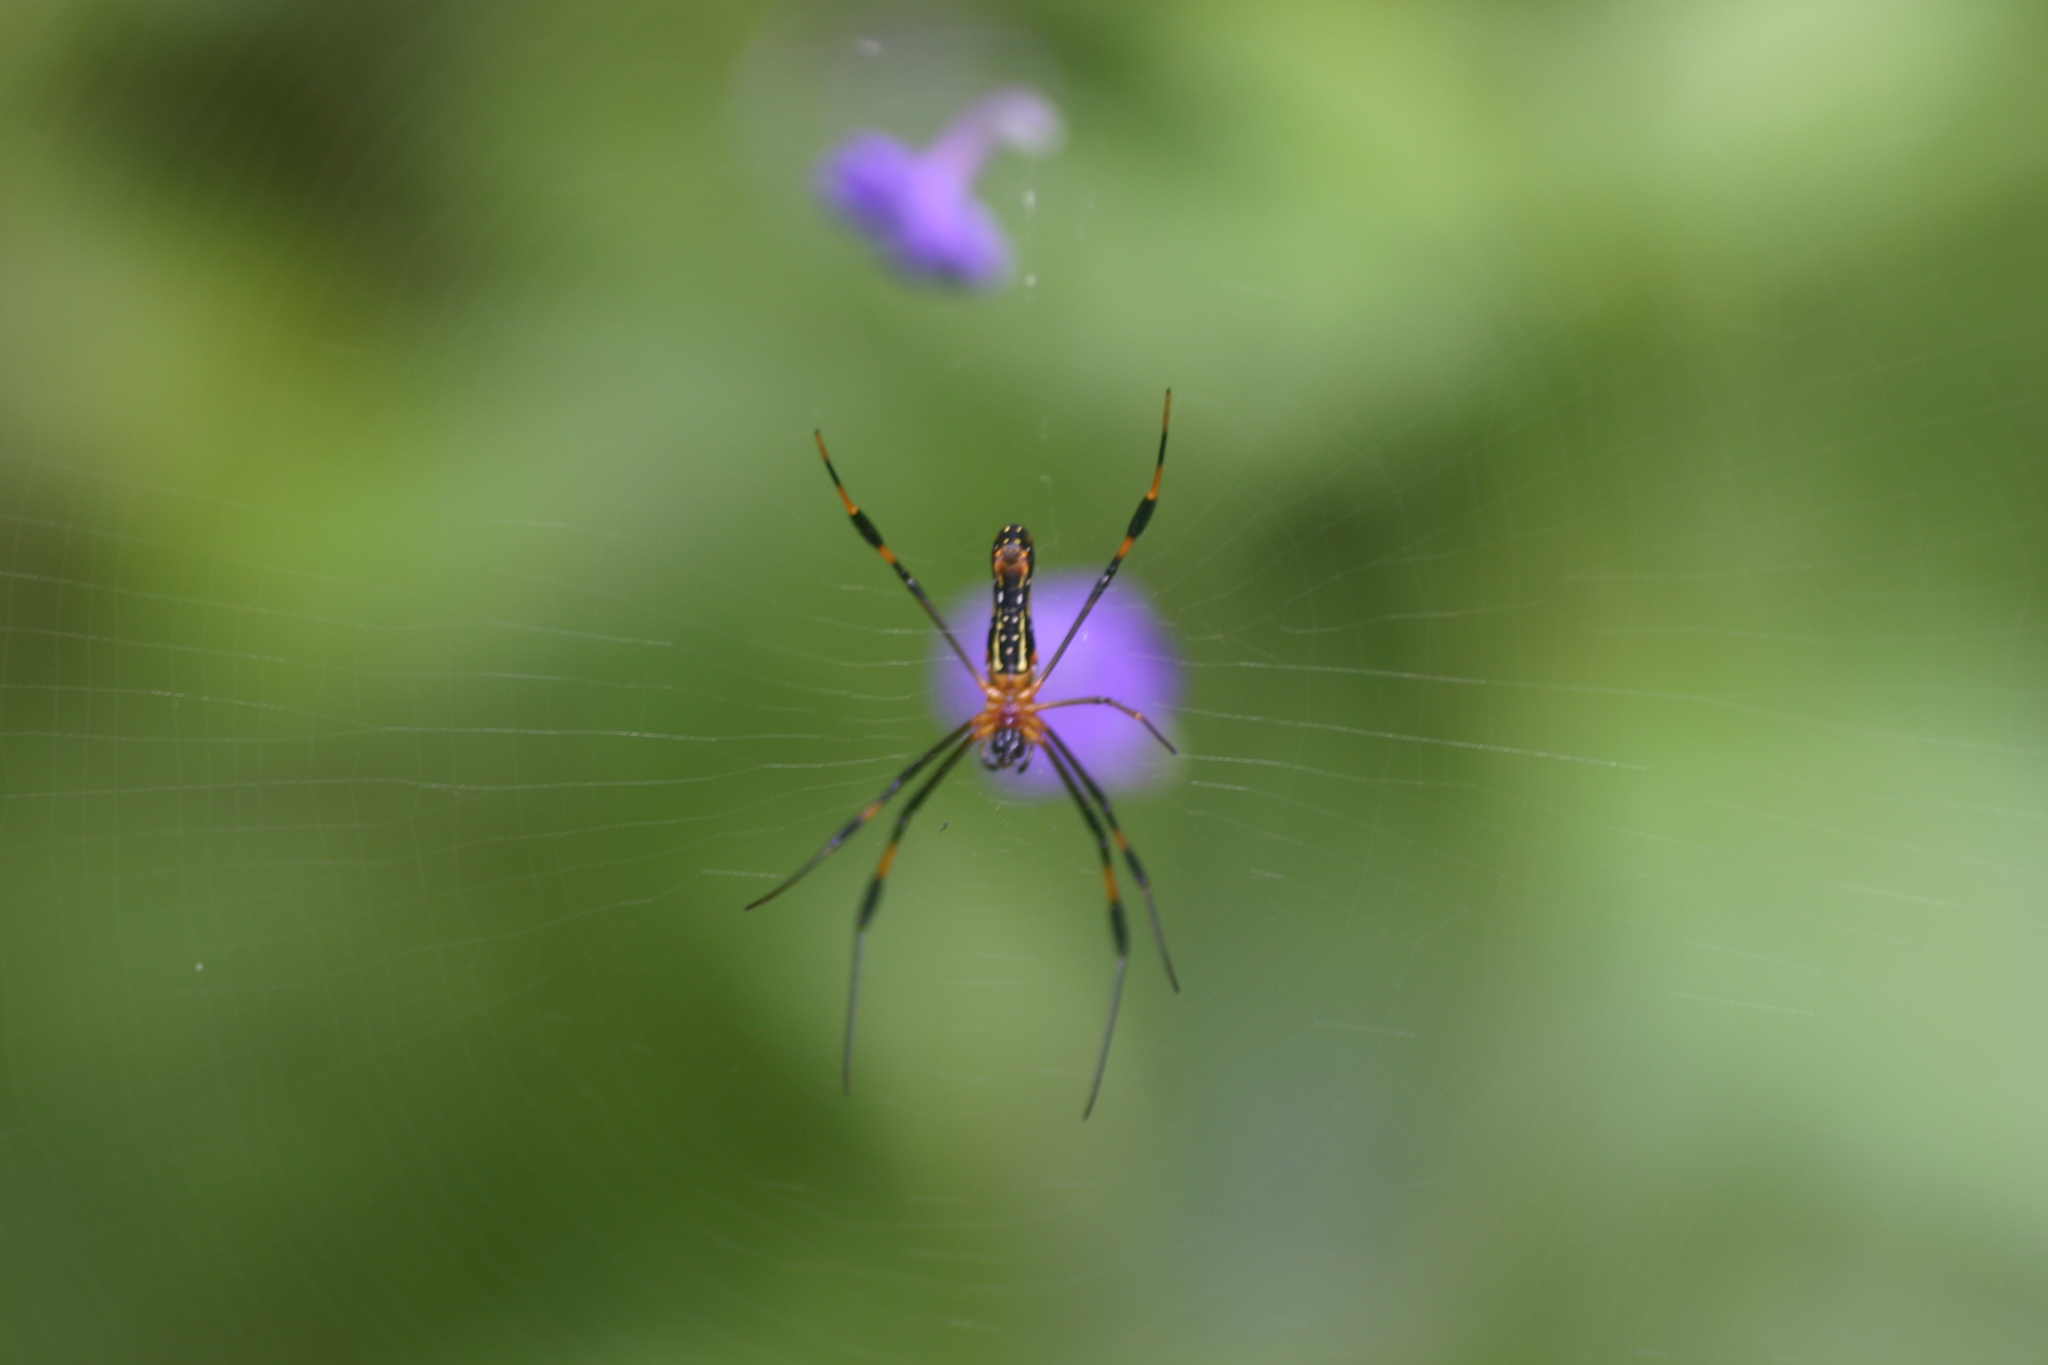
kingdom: Animalia
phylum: Arthropoda
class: Arachnida
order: Araneae
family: Araneidae
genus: Nephila
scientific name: Nephila pilipes
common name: Giant golden orb weaver
